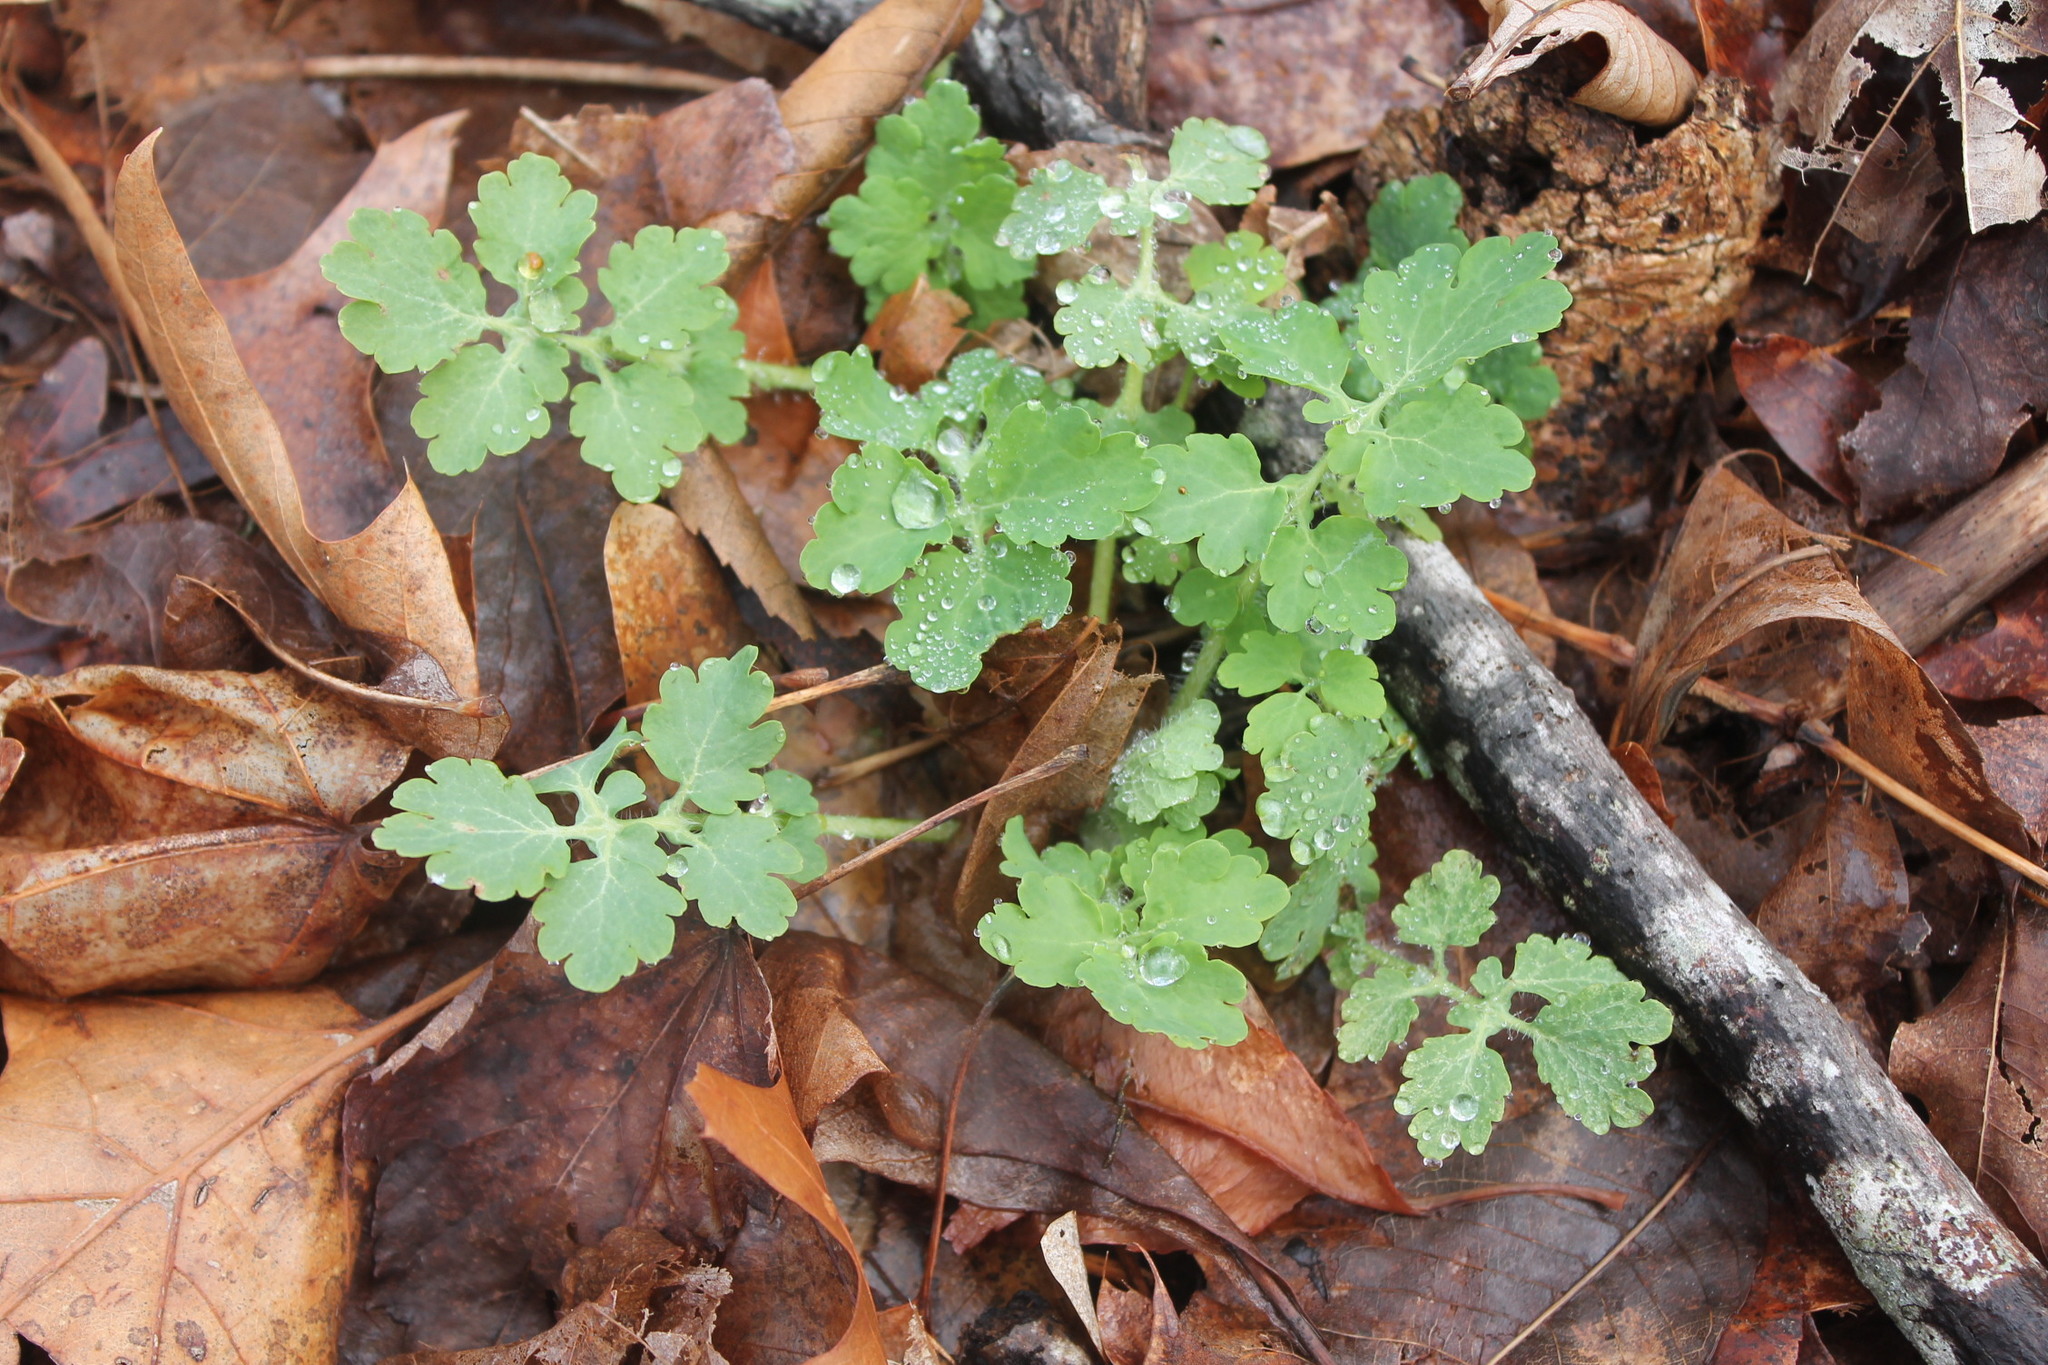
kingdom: Plantae
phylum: Tracheophyta
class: Magnoliopsida
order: Ranunculales
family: Papaveraceae
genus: Chelidonium
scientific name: Chelidonium majus
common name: Greater celandine
